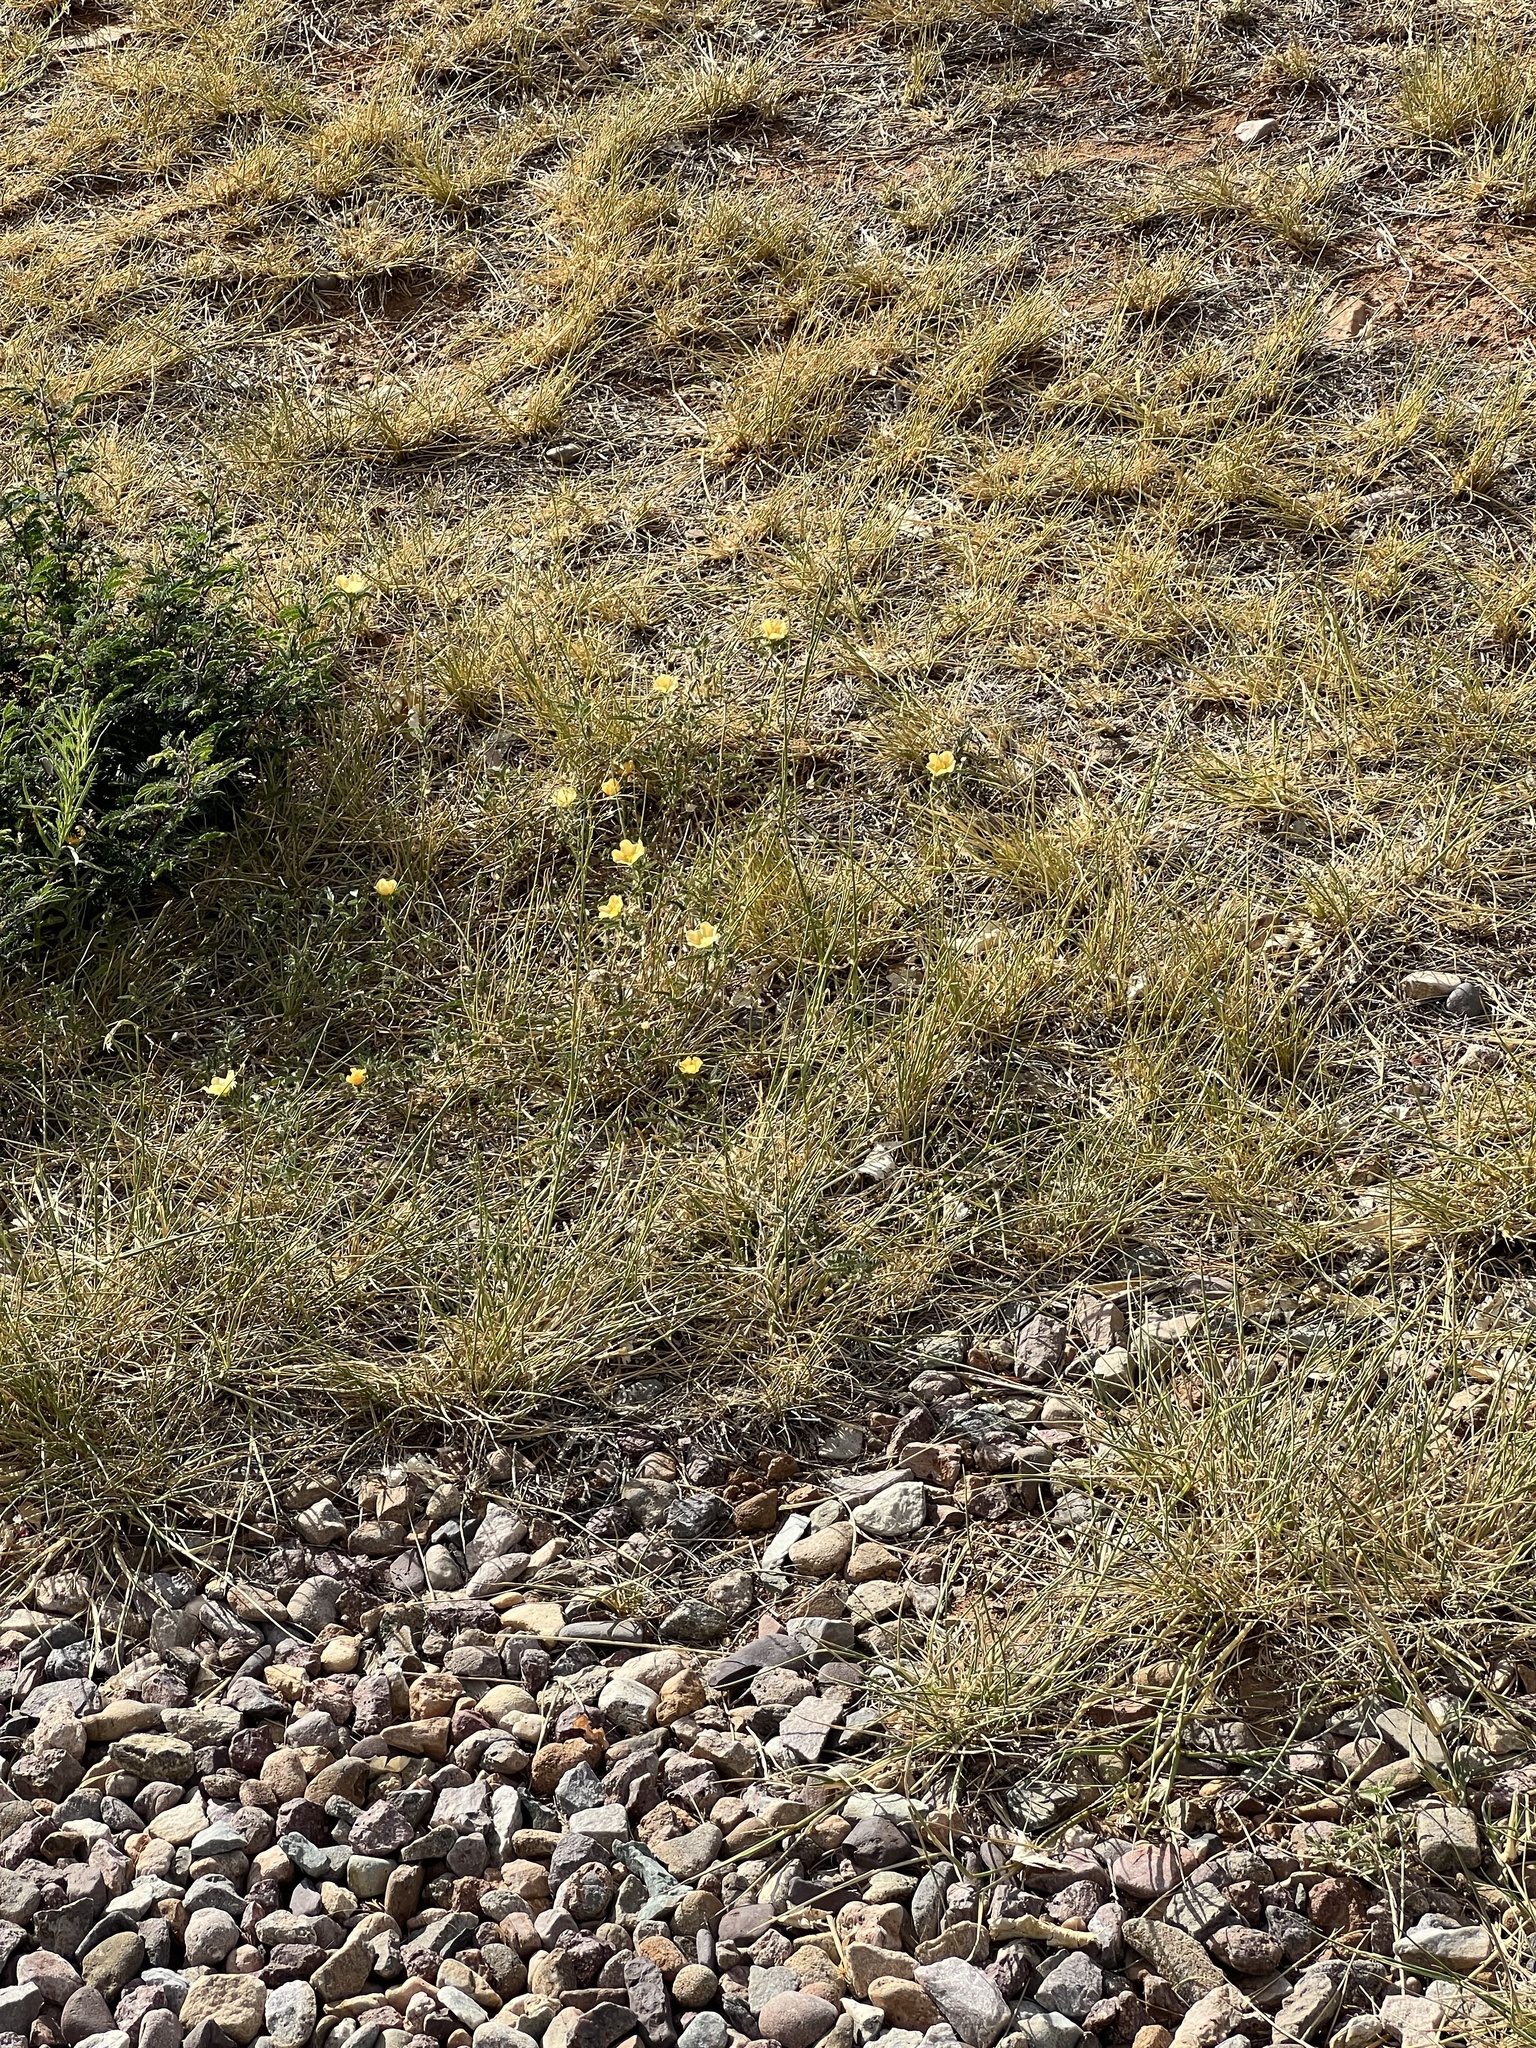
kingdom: Plantae
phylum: Tracheophyta
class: Magnoliopsida
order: Malvales
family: Malvaceae
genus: Sida
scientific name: Sida abutilifolia
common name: Spreading fanpetals
